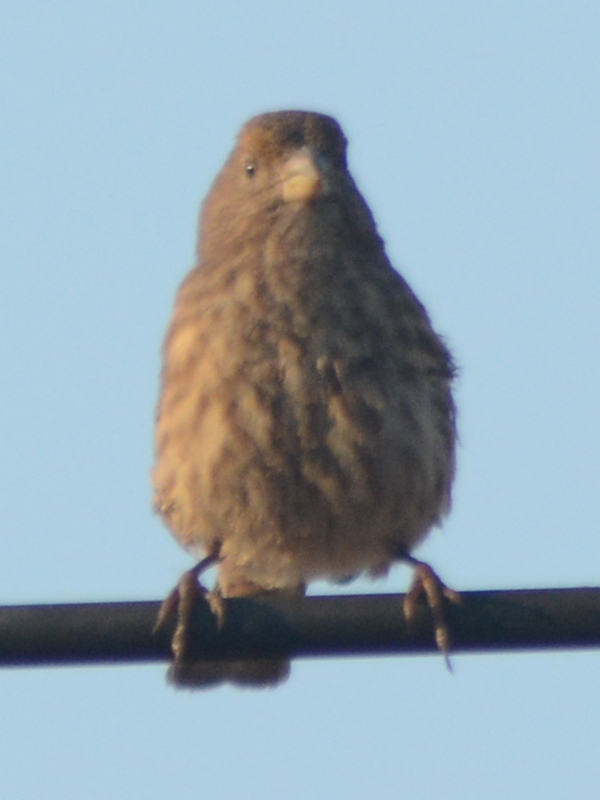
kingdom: Animalia
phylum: Chordata
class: Aves
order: Passeriformes
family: Fringillidae
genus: Haemorhous
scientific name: Haemorhous mexicanus
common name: House finch
